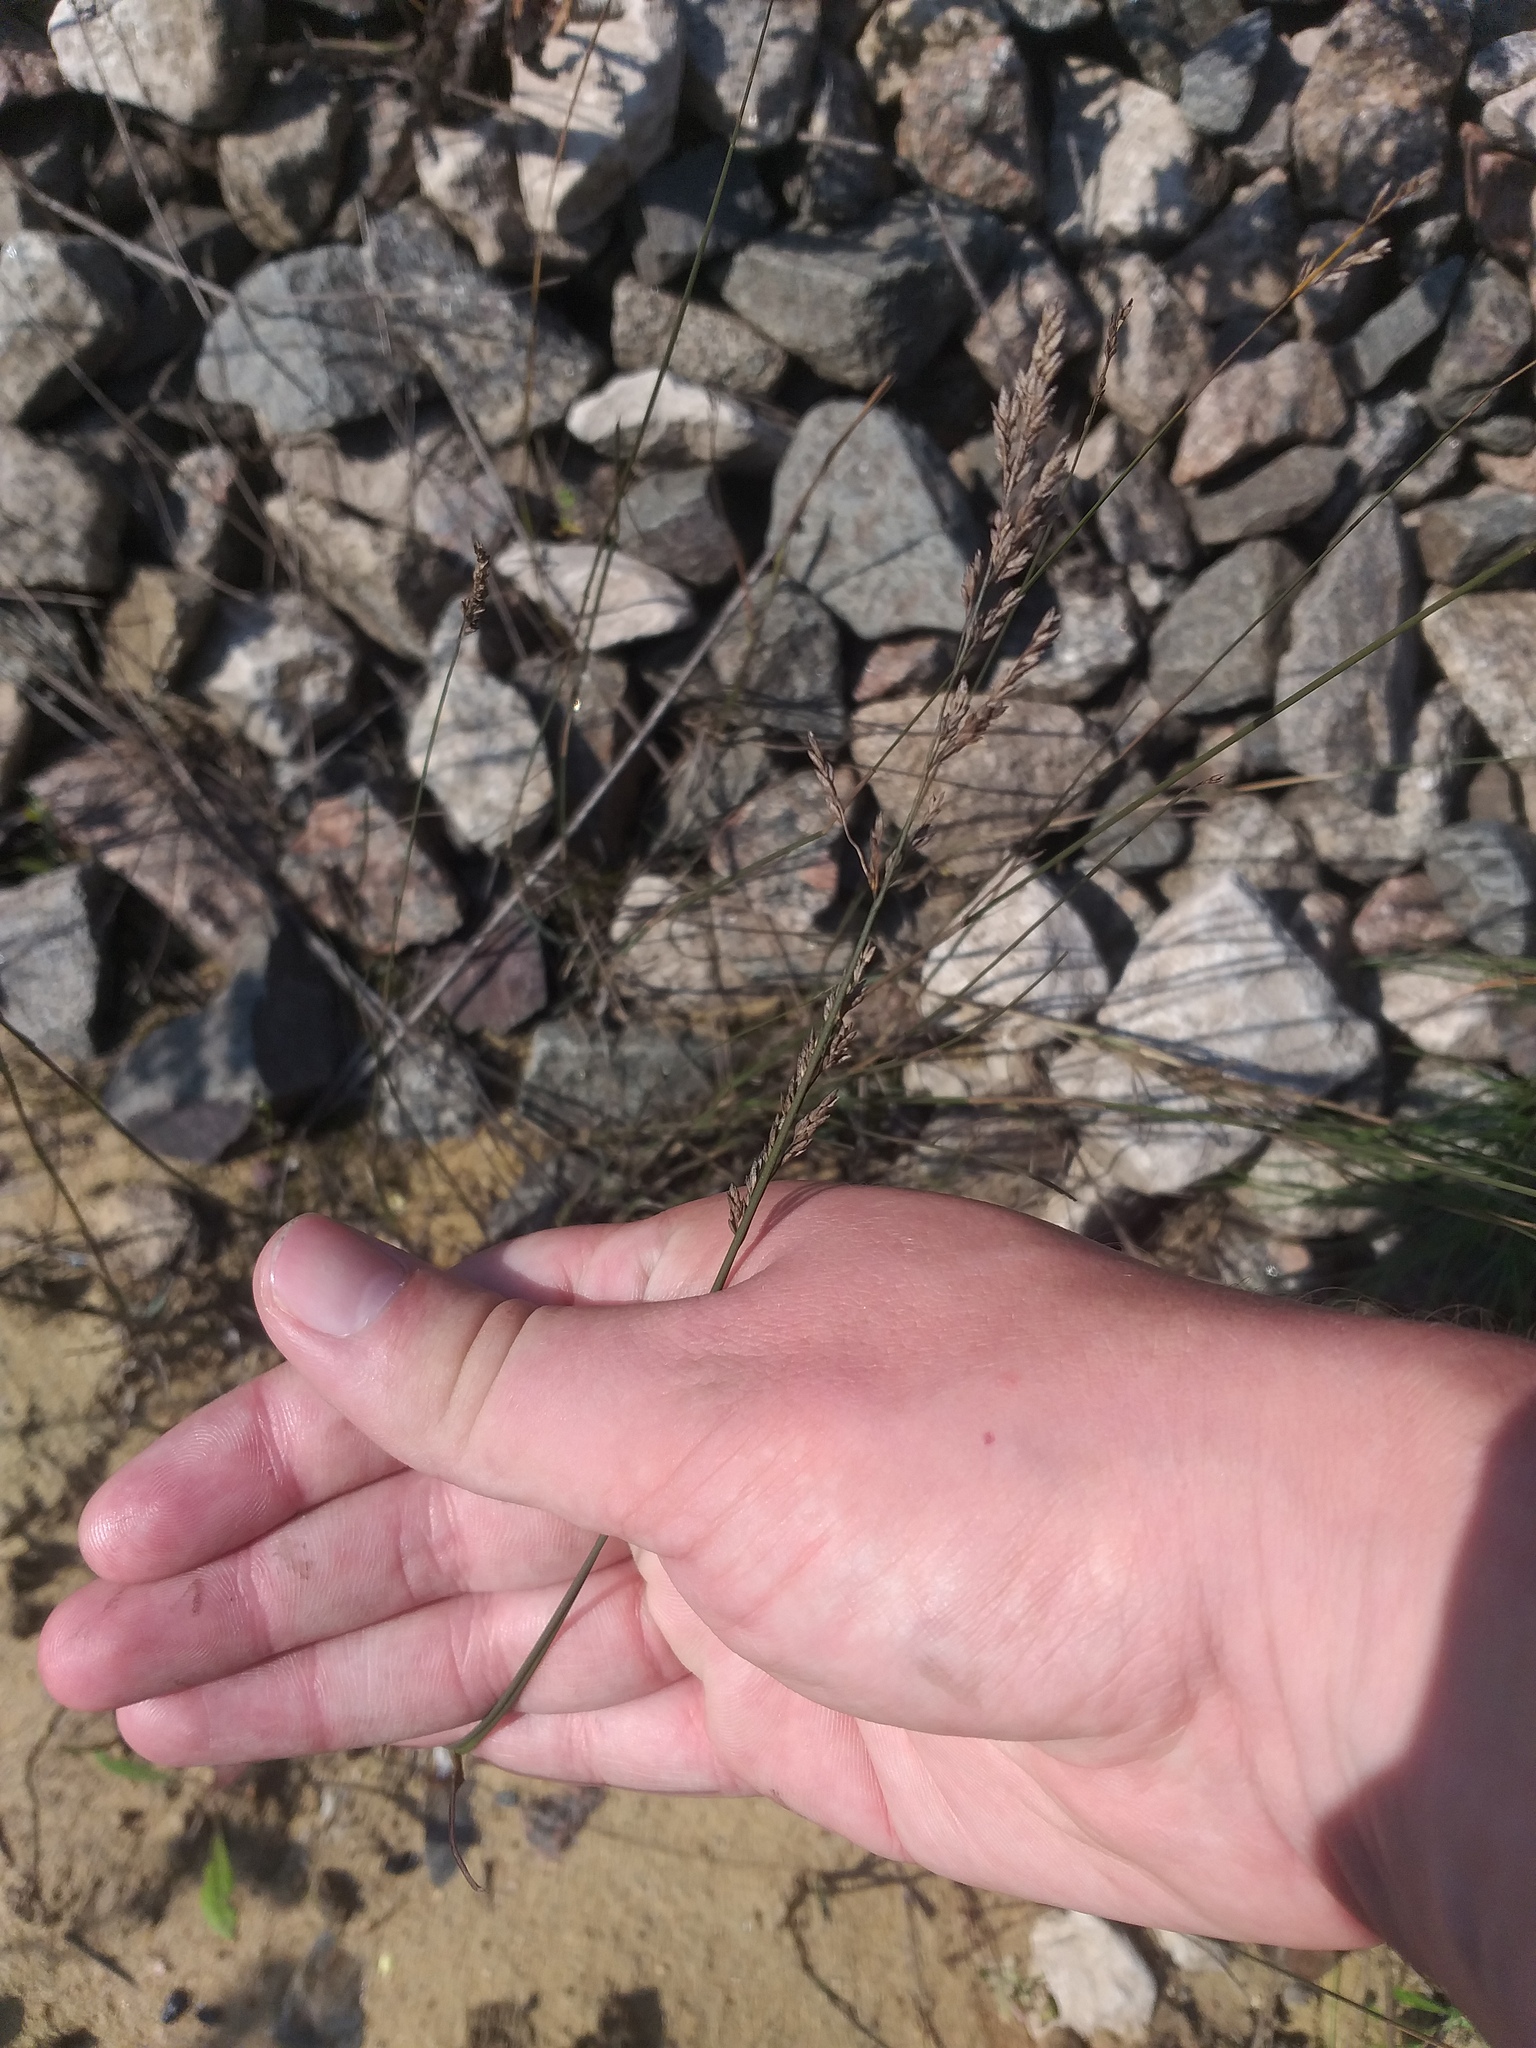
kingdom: Plantae
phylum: Tracheophyta
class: Liliopsida
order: Poales
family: Poaceae
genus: Poa
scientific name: Poa compressa
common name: Canada bluegrass
